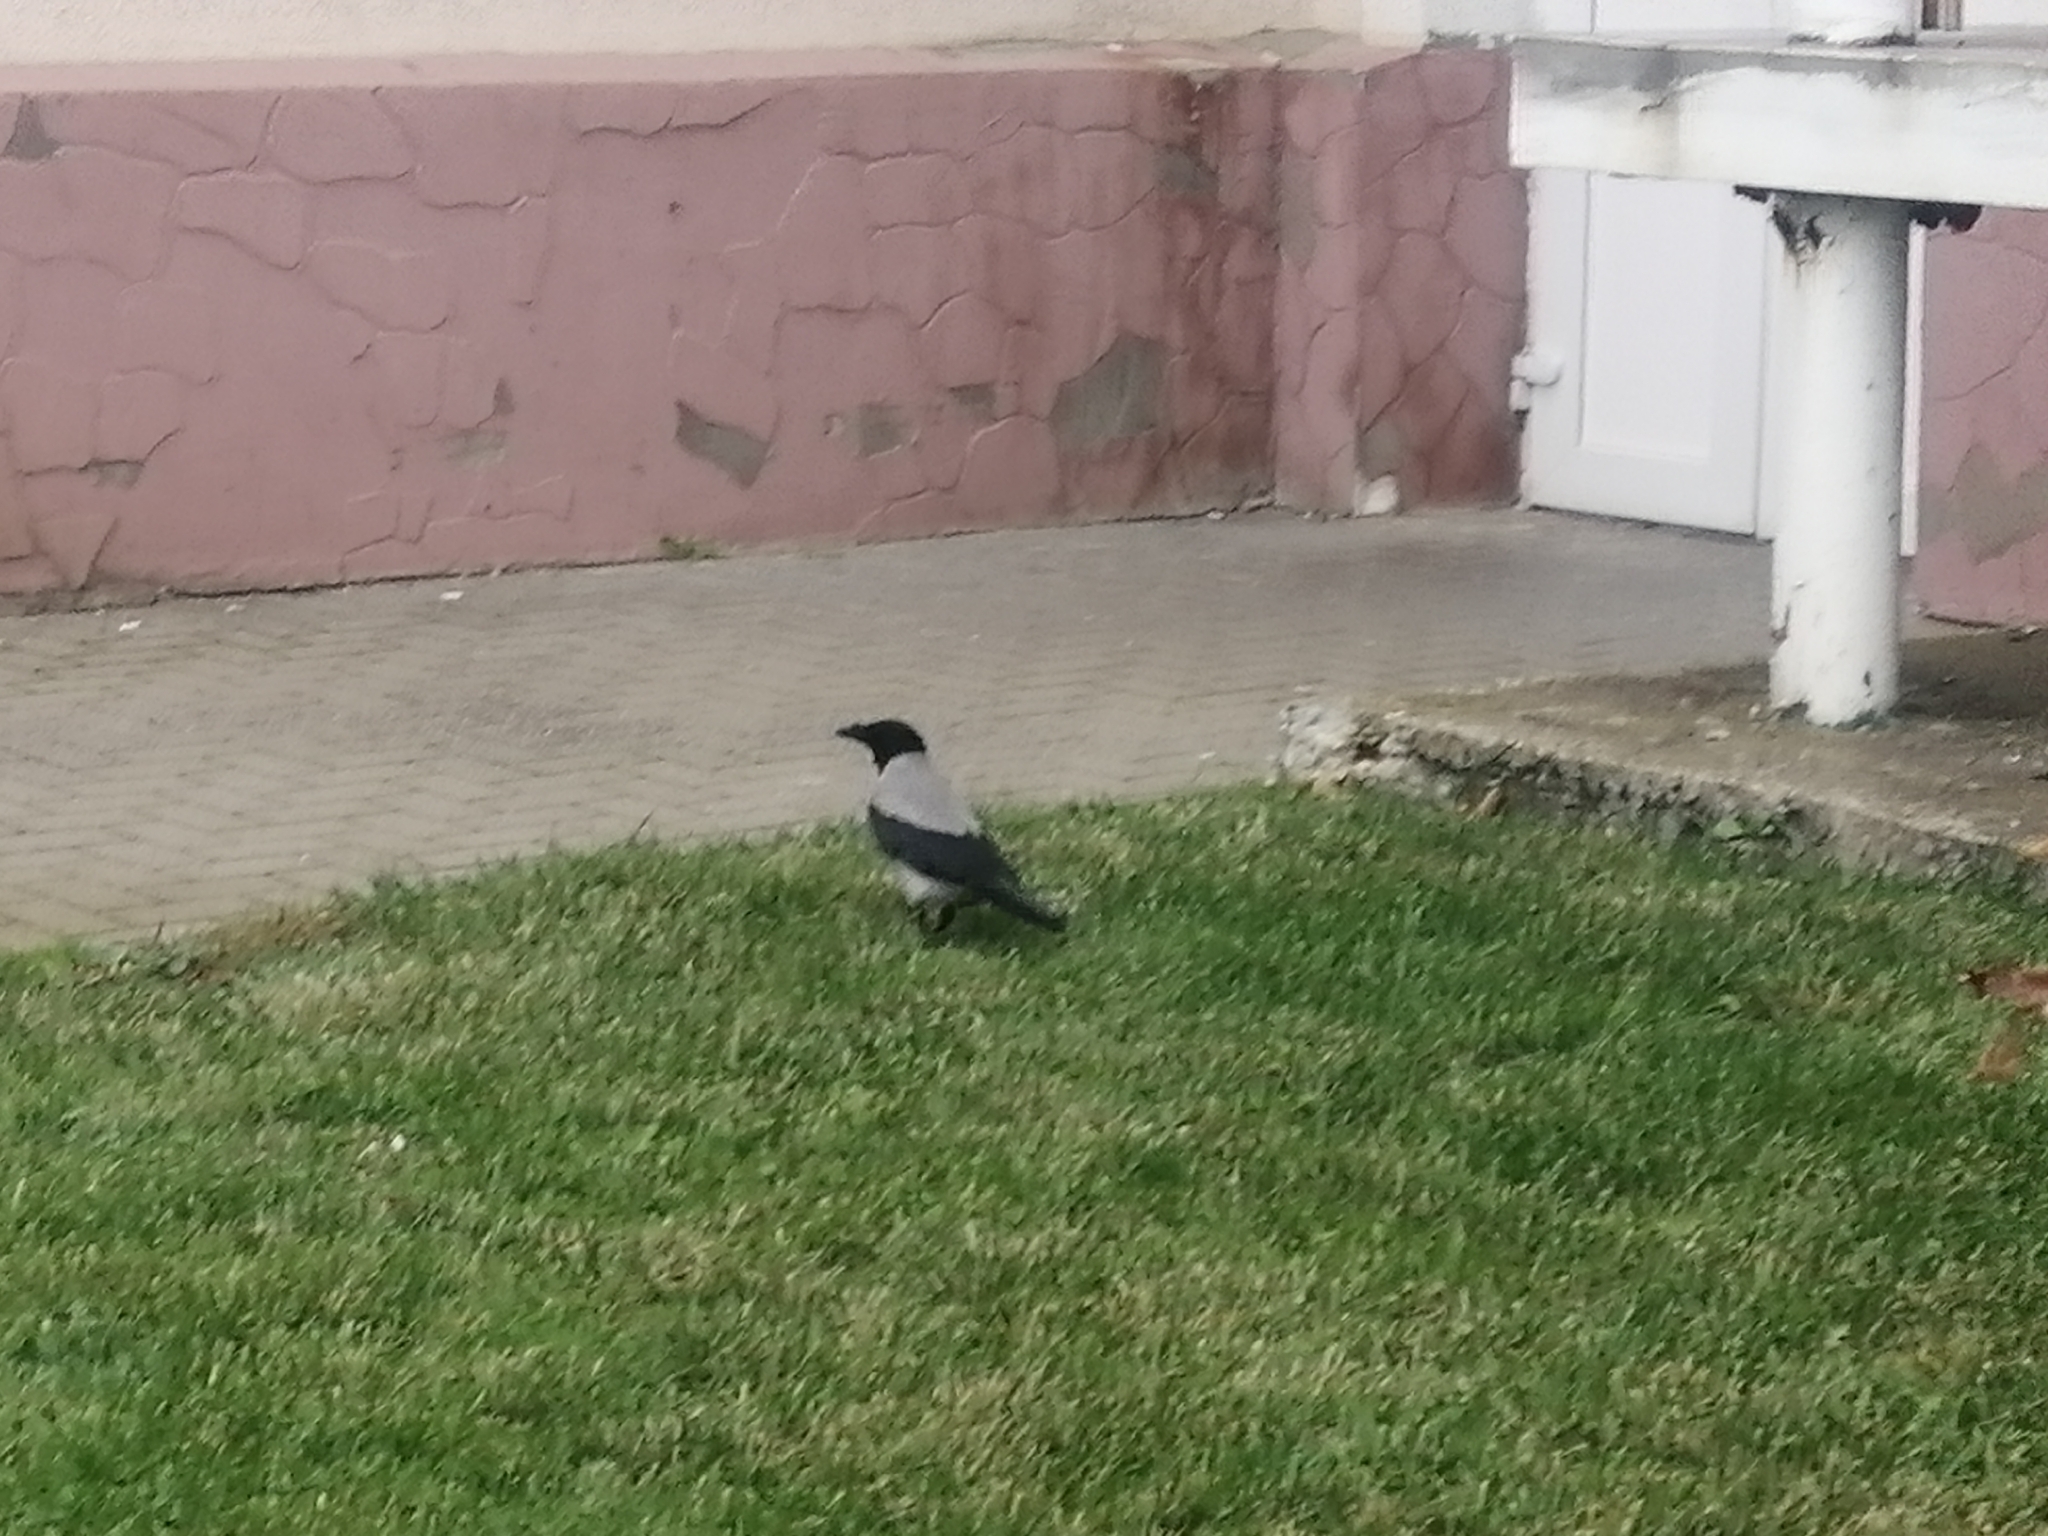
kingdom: Animalia
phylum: Chordata
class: Aves
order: Passeriformes
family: Corvidae
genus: Corvus
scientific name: Corvus cornix
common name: Hooded crow
